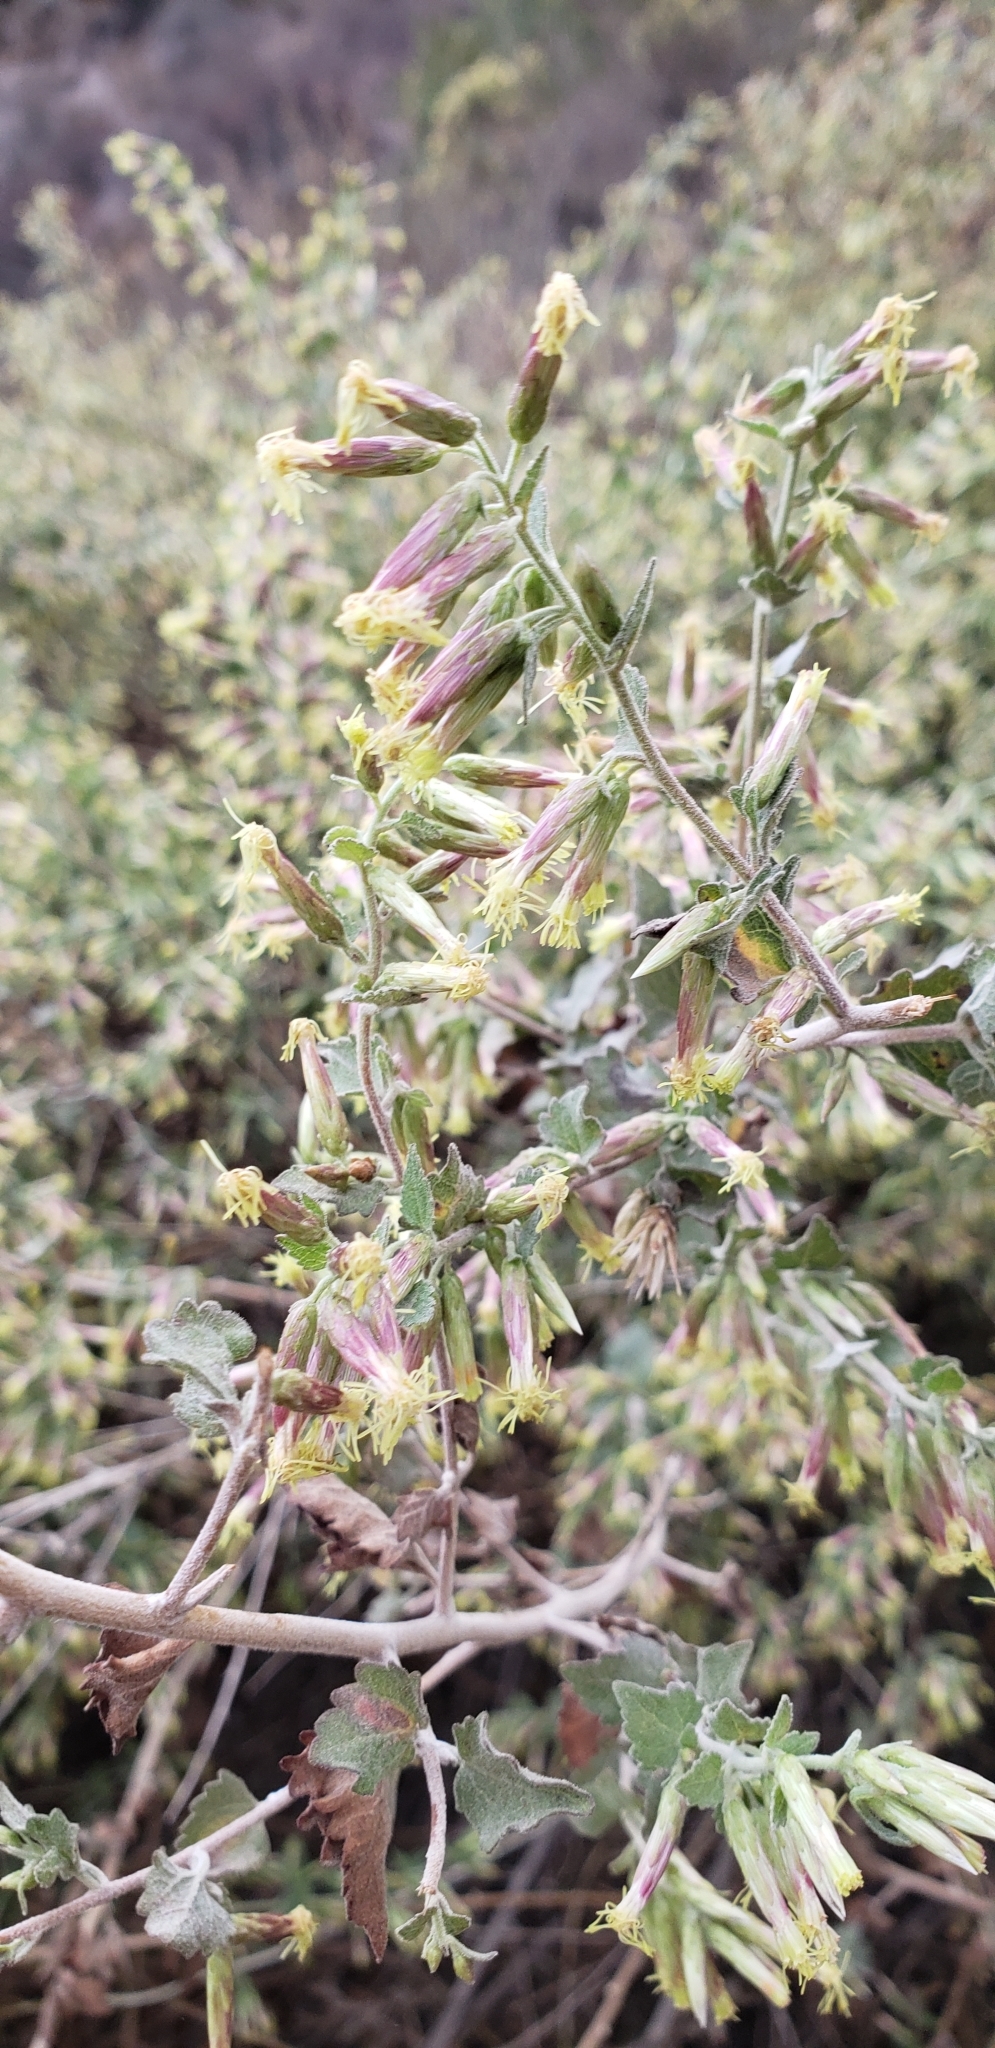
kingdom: Plantae
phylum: Tracheophyta
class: Magnoliopsida
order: Asterales
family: Asteraceae
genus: Brickellia
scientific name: Brickellia californica
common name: California brickellbush
